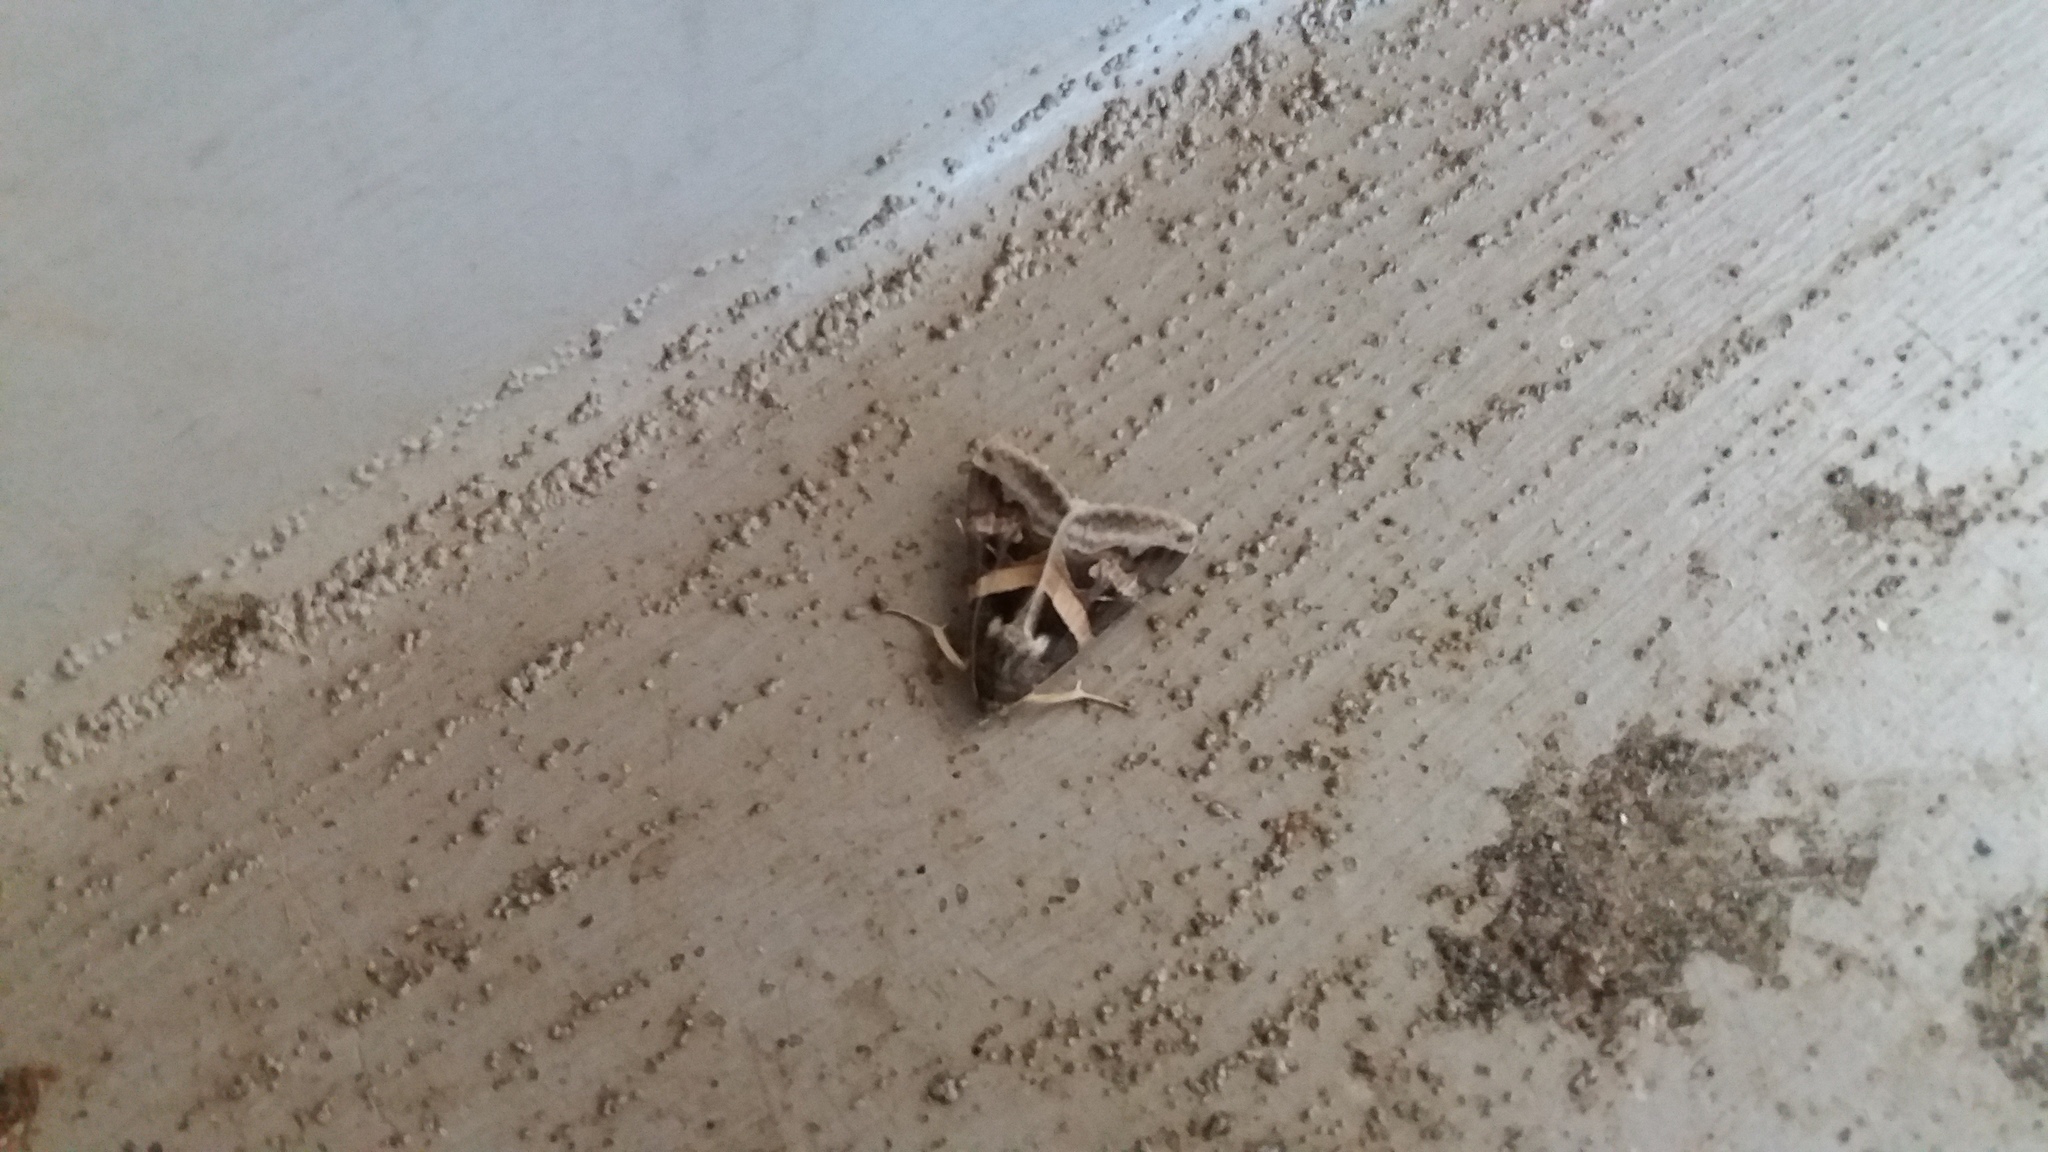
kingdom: Animalia
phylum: Arthropoda
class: Insecta
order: Lepidoptera
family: Erebidae
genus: Melipotis
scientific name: Melipotis indomita
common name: Moth
